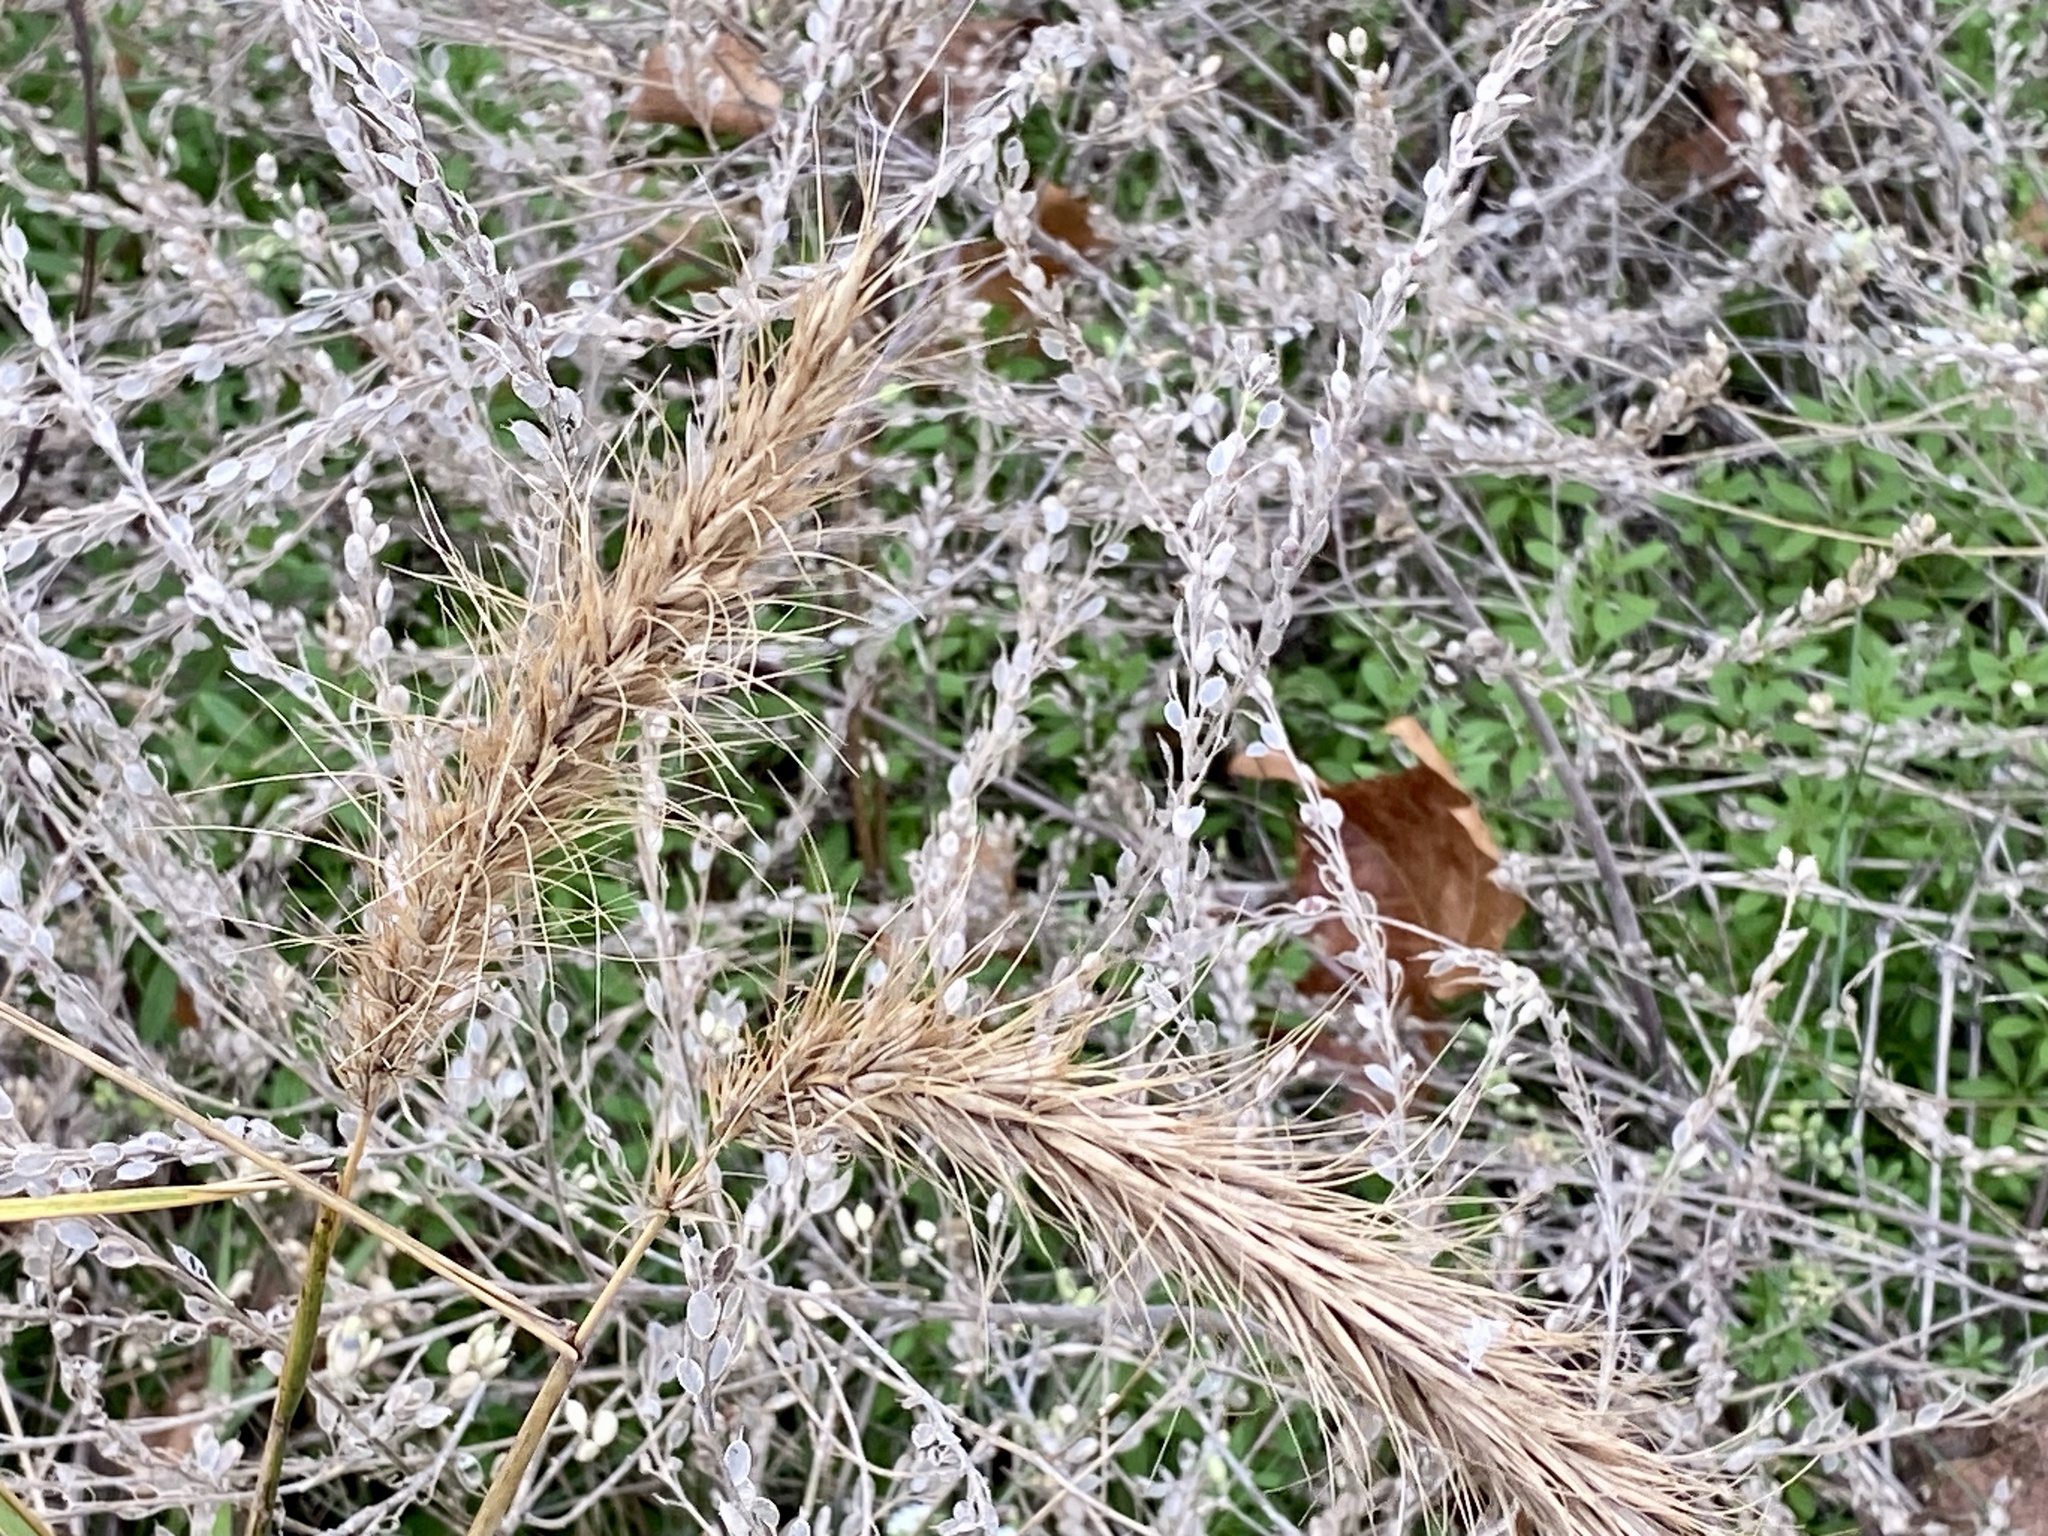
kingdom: Plantae
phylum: Tracheophyta
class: Liliopsida
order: Poales
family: Poaceae
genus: Elymus
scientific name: Elymus canadensis
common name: Canada wild rye
